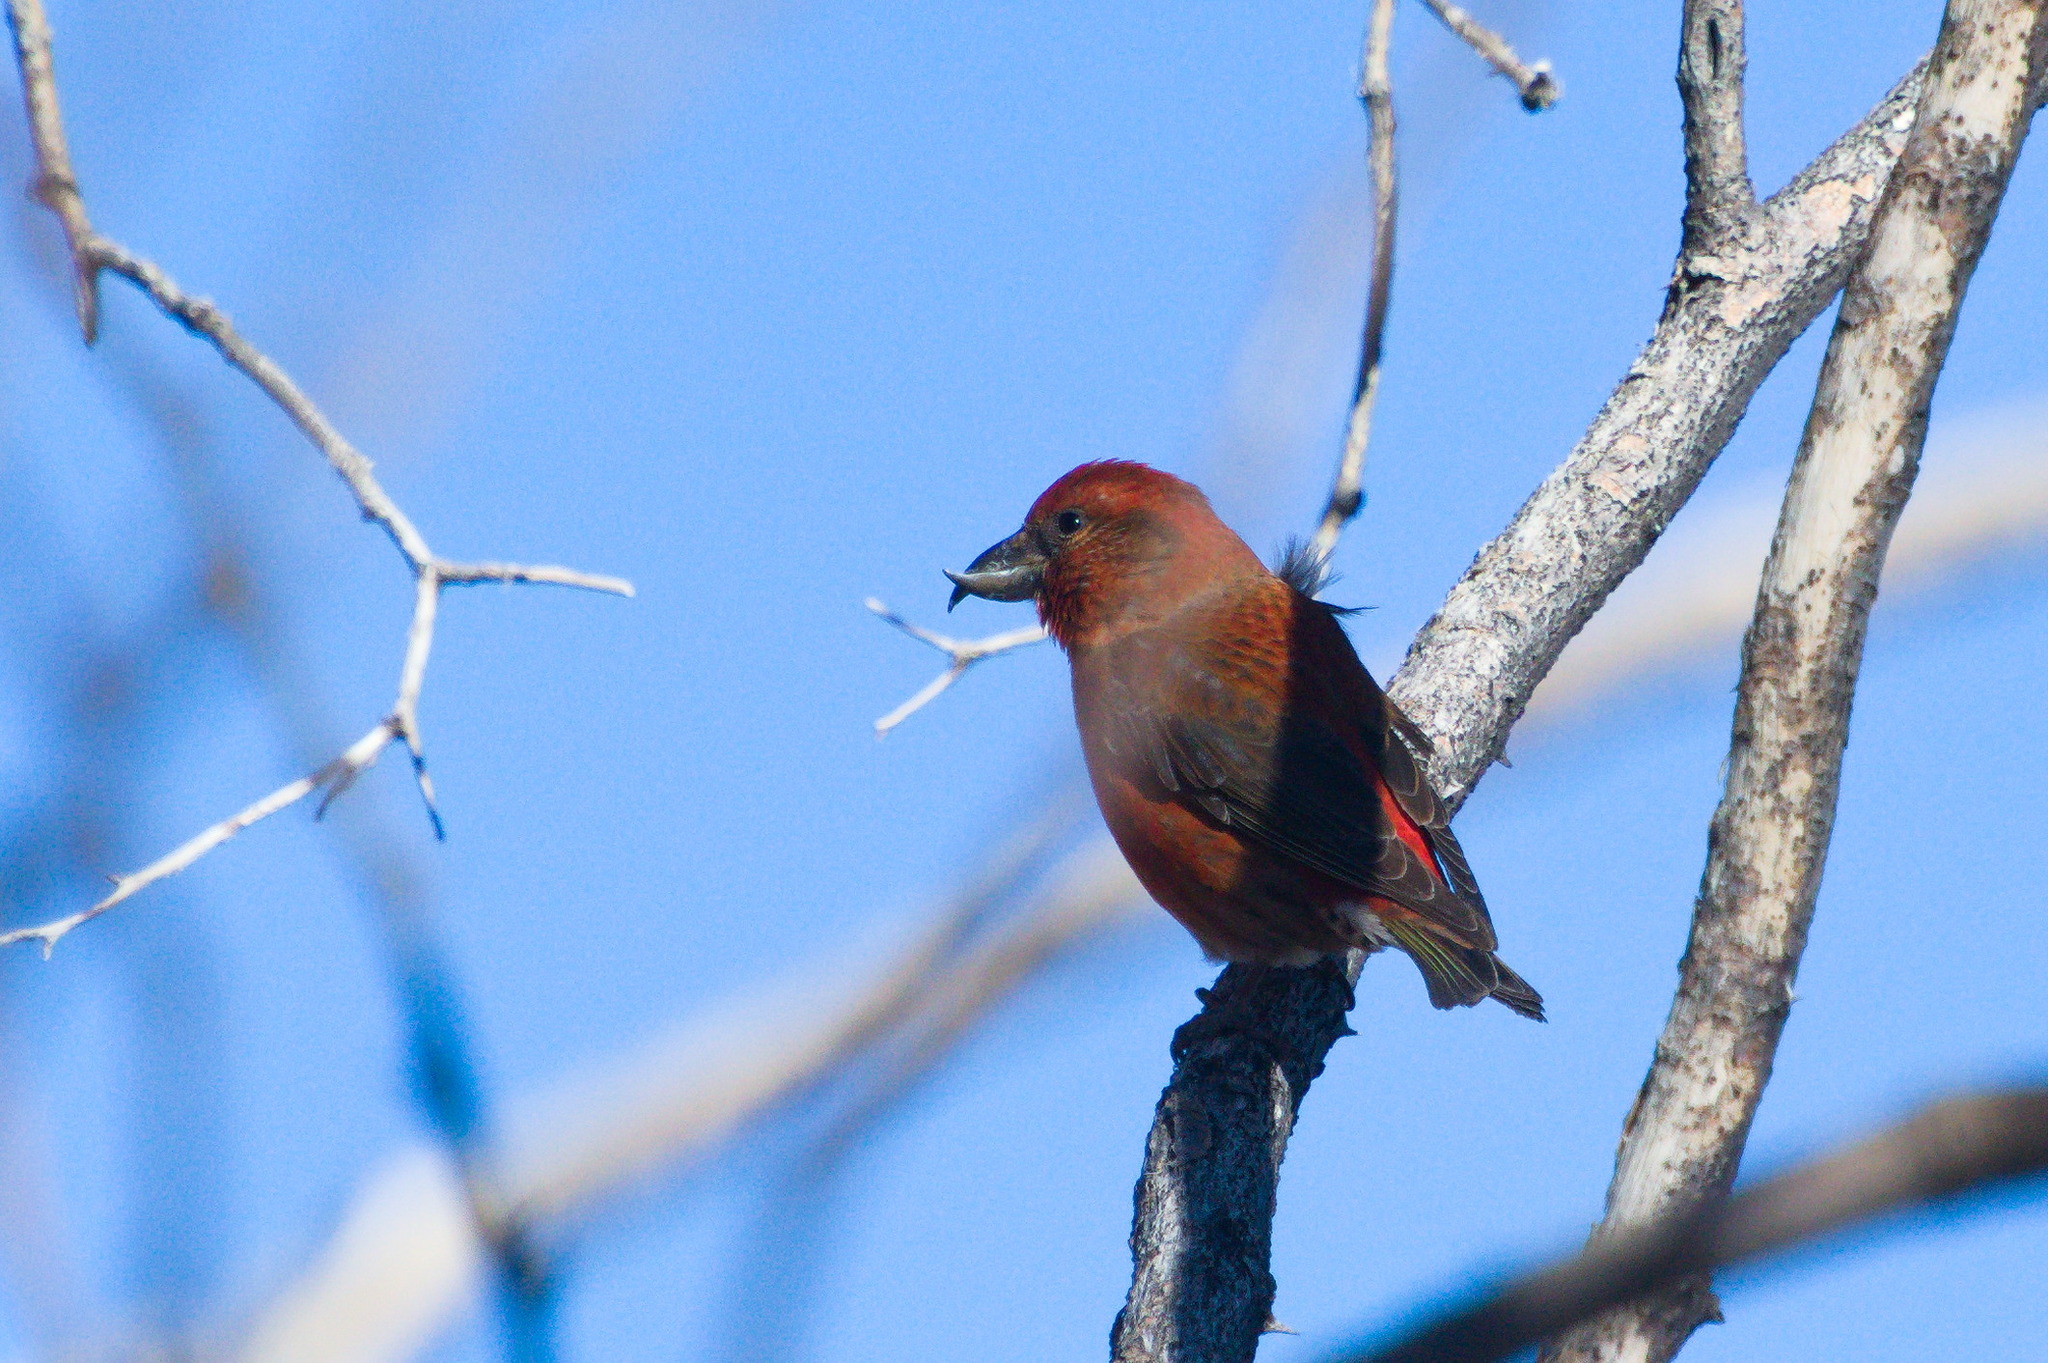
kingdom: Animalia
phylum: Chordata
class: Aves
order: Passeriformes
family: Fringillidae
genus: Loxia
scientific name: Loxia curvirostra
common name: Red crossbill
